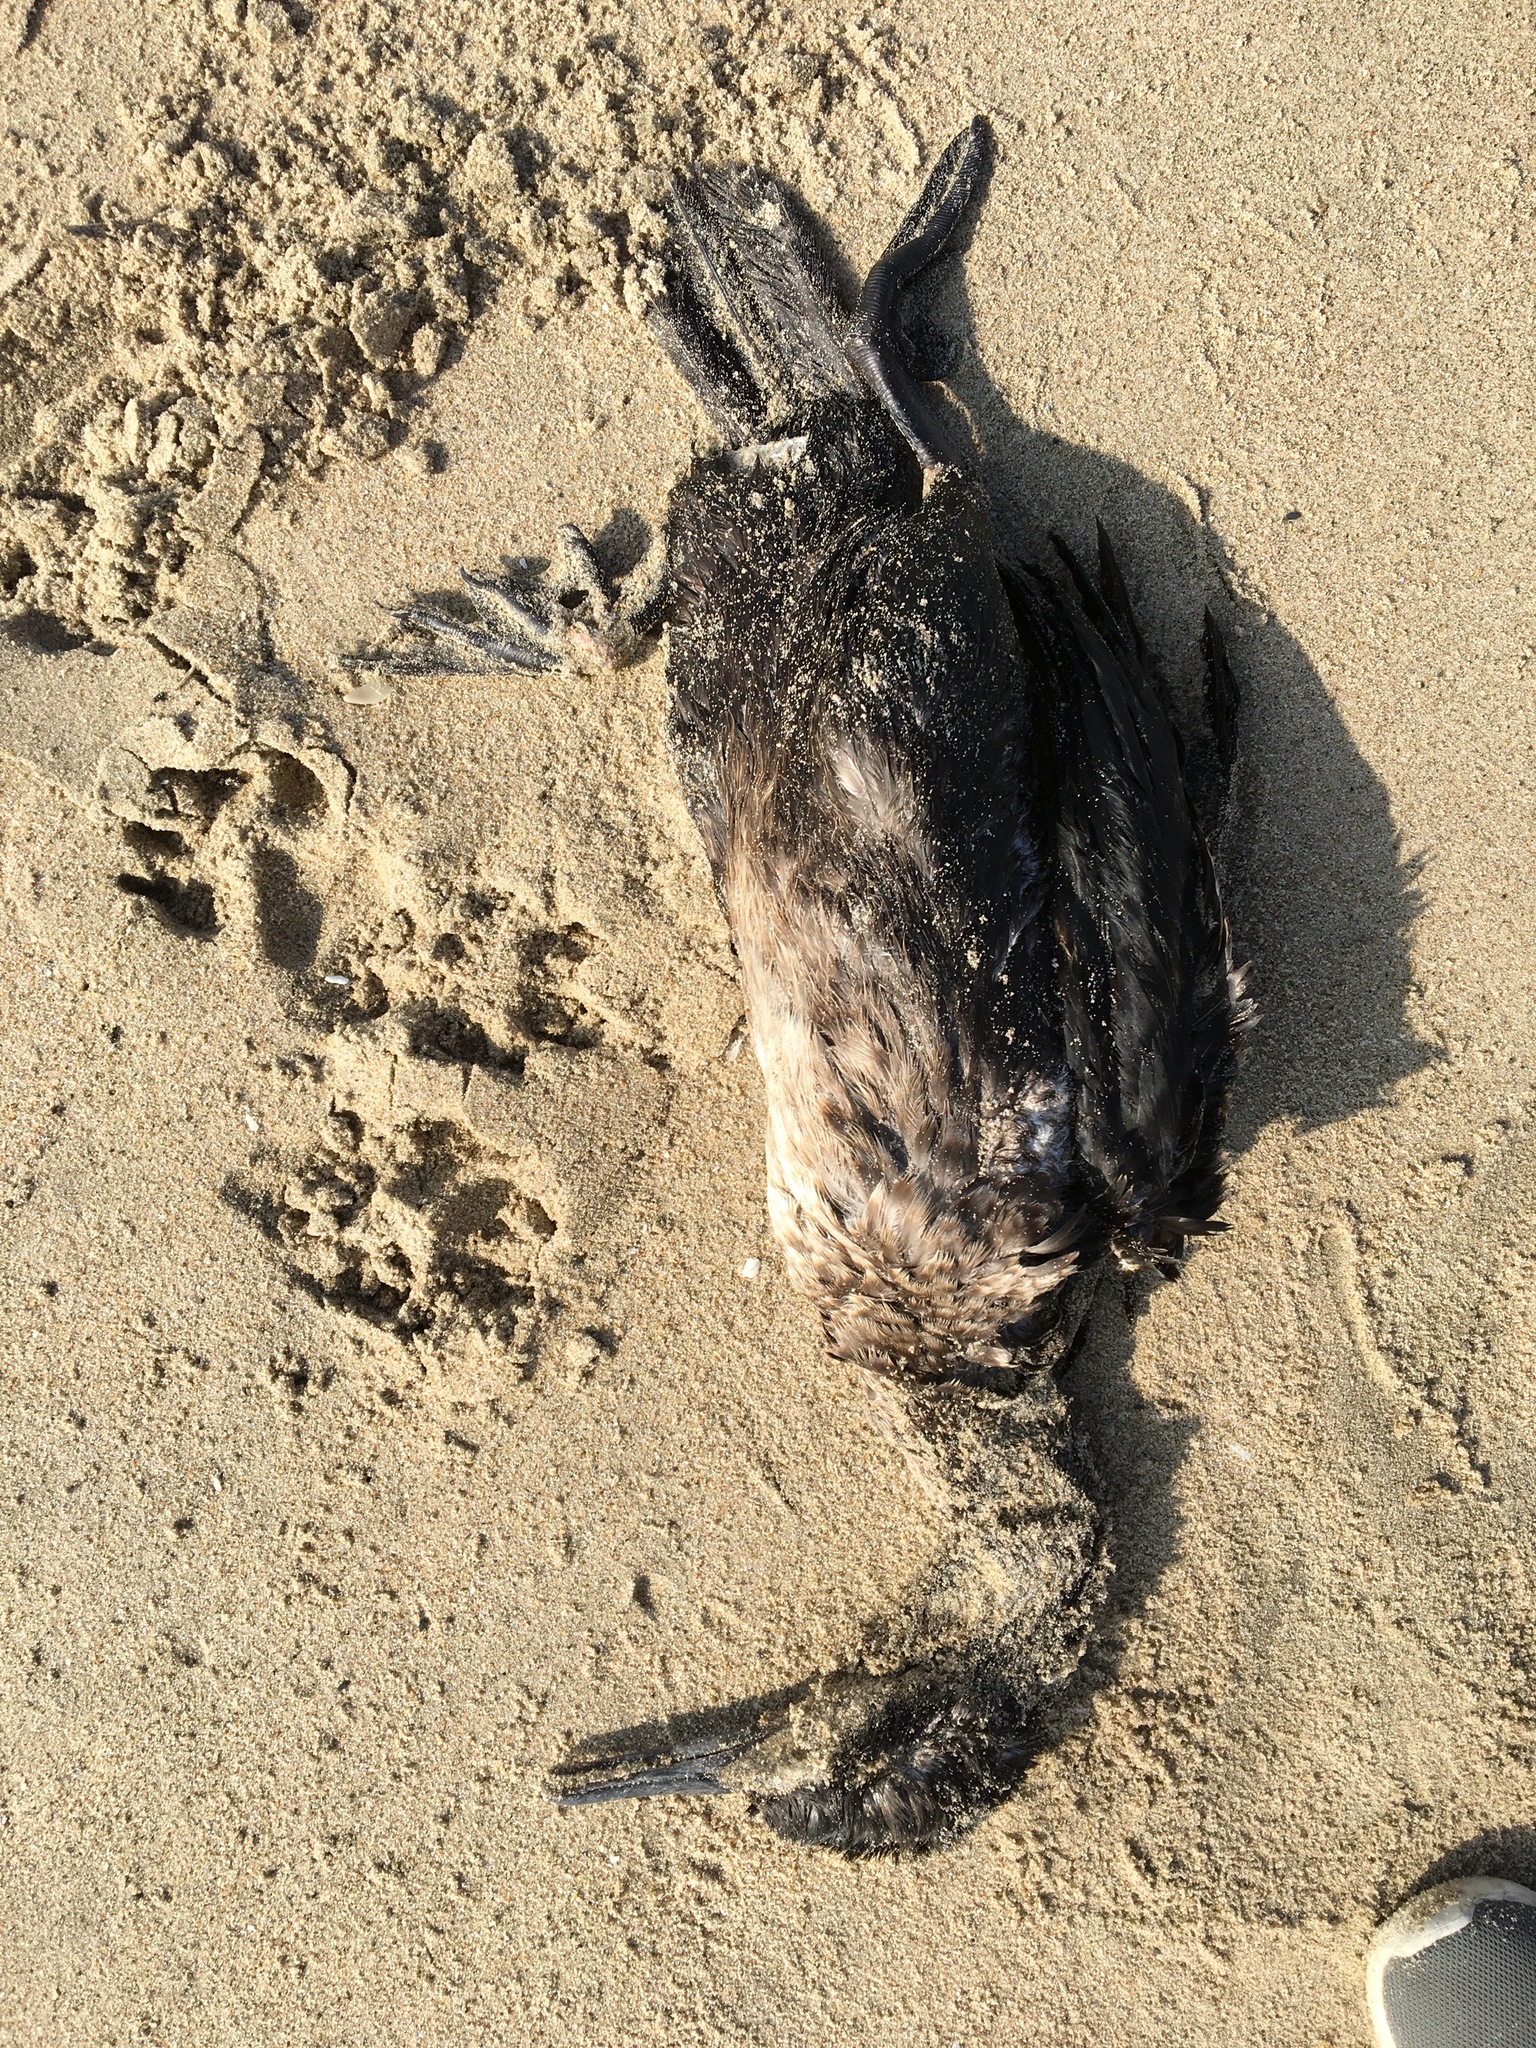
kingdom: Animalia
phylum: Chordata
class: Aves
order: Suliformes
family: Phalacrocoracidae
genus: Urile
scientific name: Urile penicillatus
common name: Brandt's cormorant
